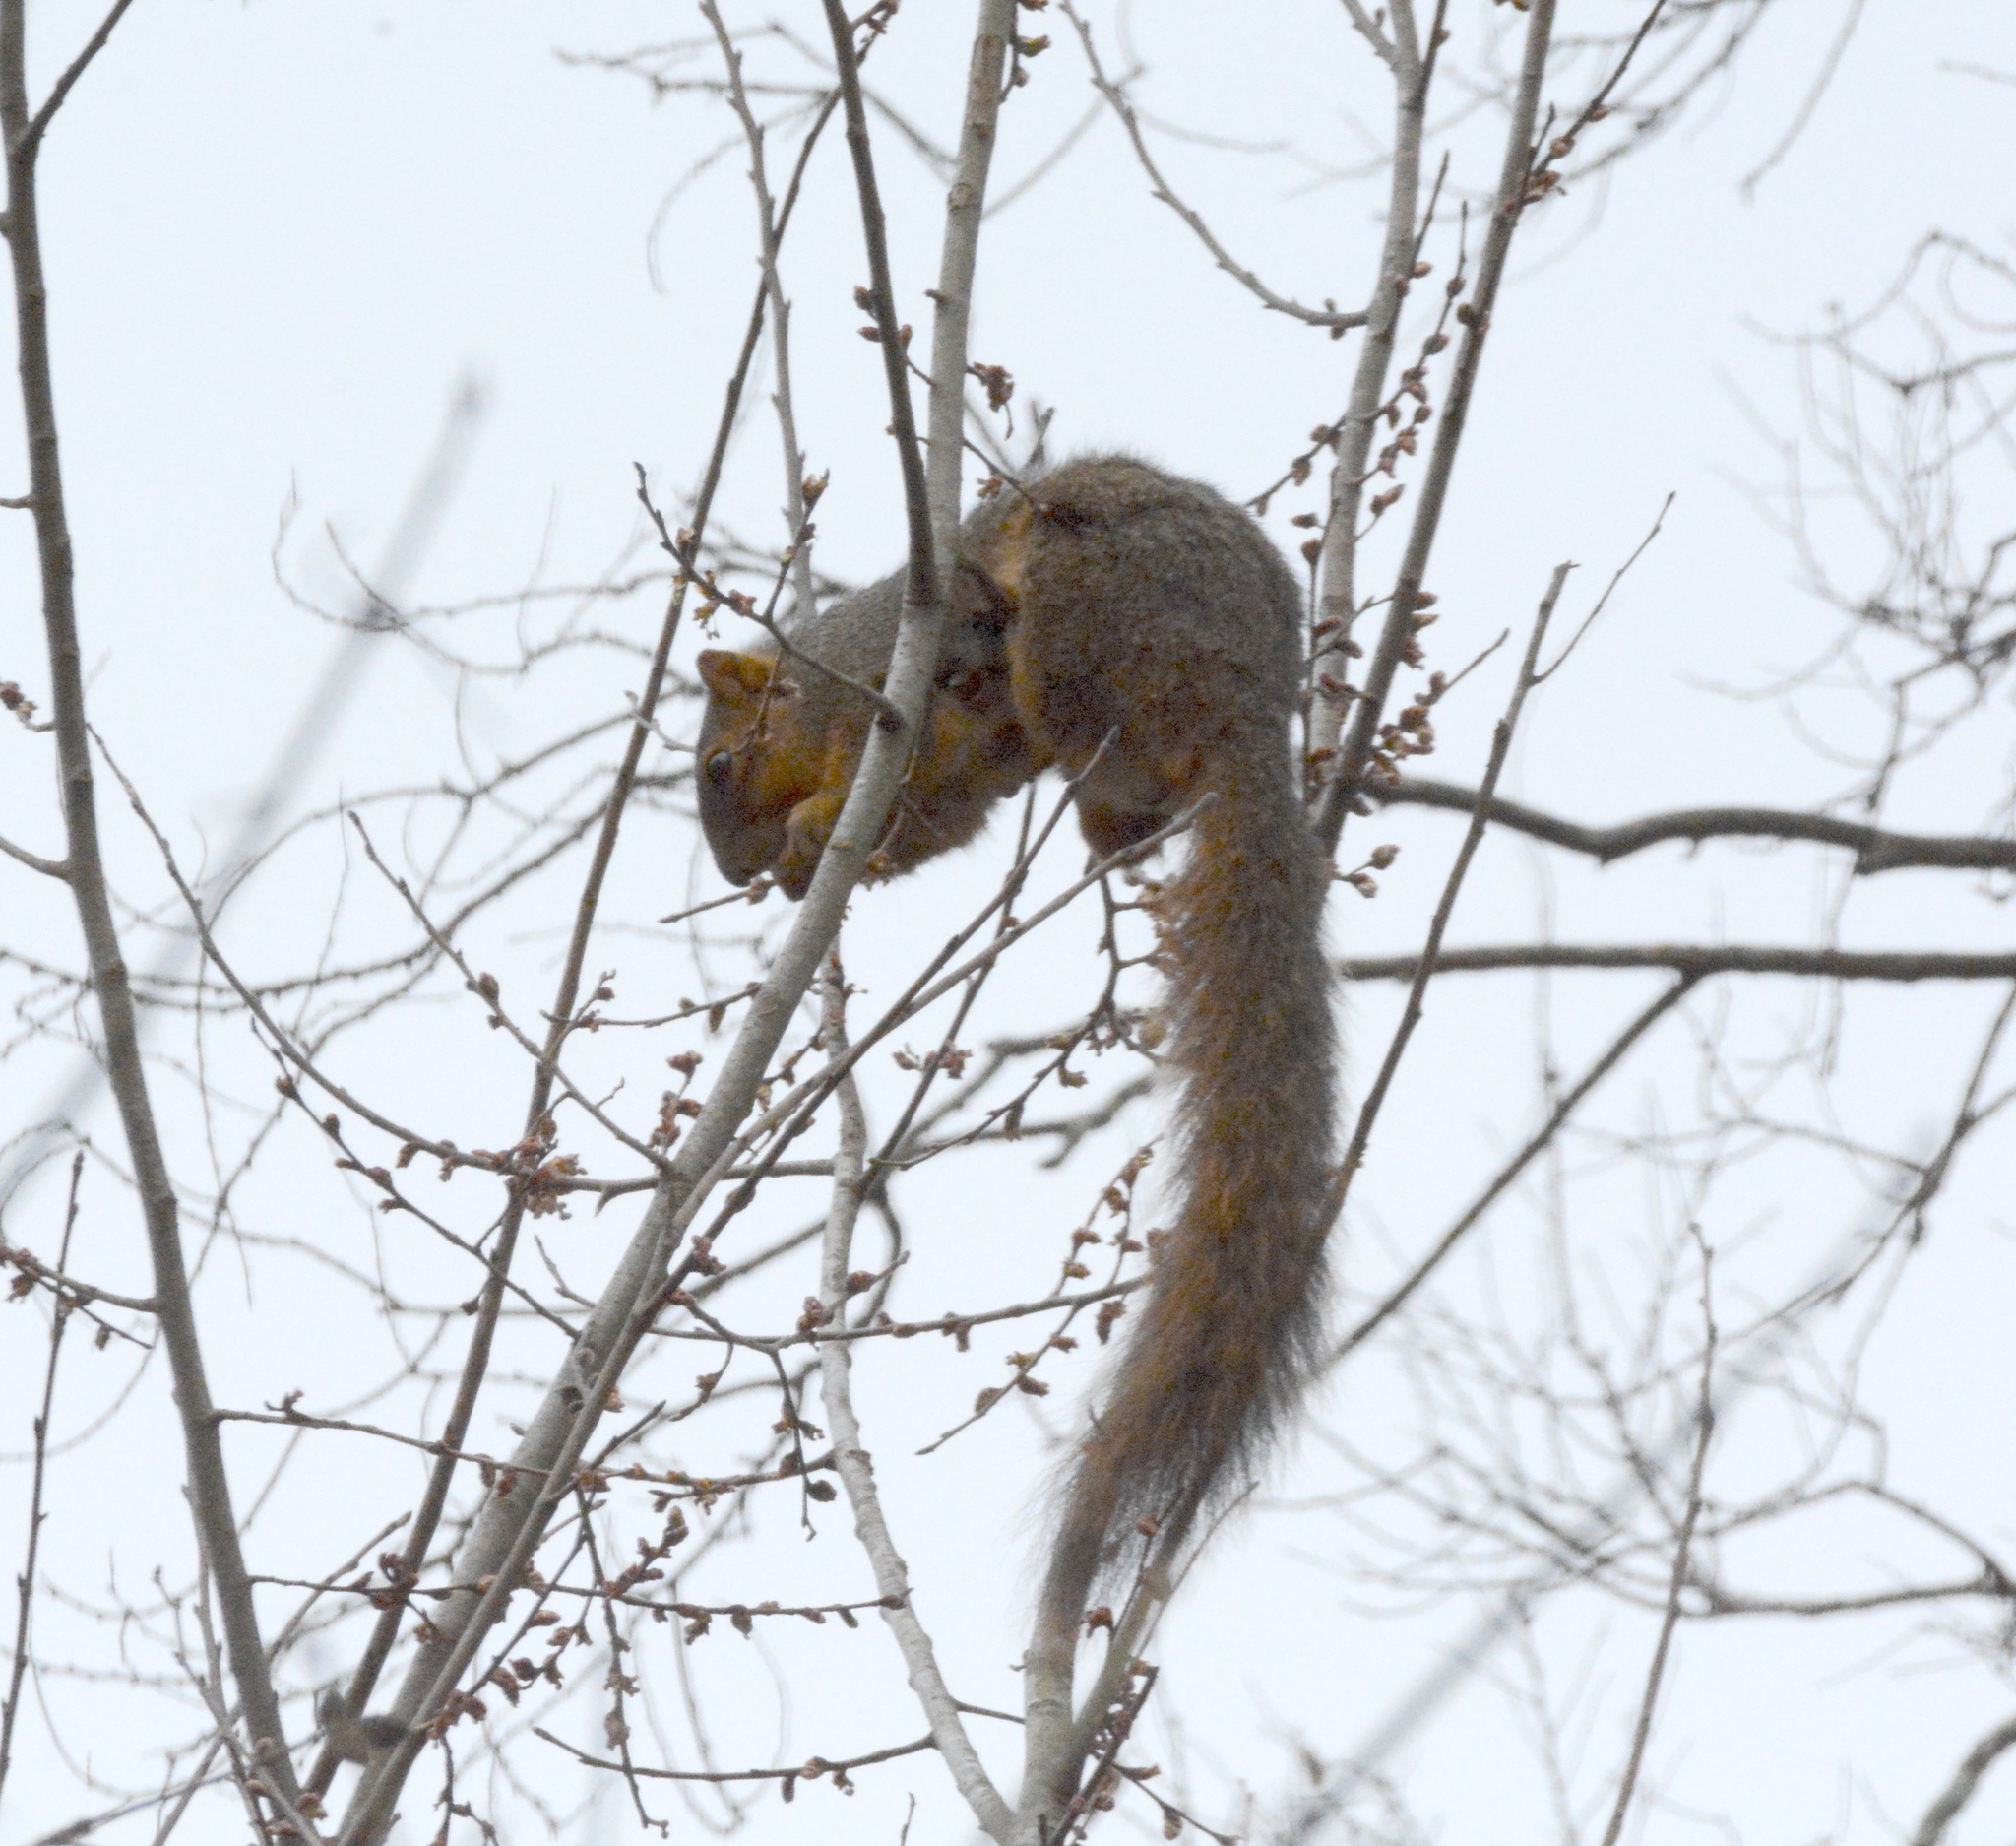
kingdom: Animalia
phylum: Chordata
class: Mammalia
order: Rodentia
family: Sciuridae
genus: Sciurus
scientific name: Sciurus niger
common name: Fox squirrel
